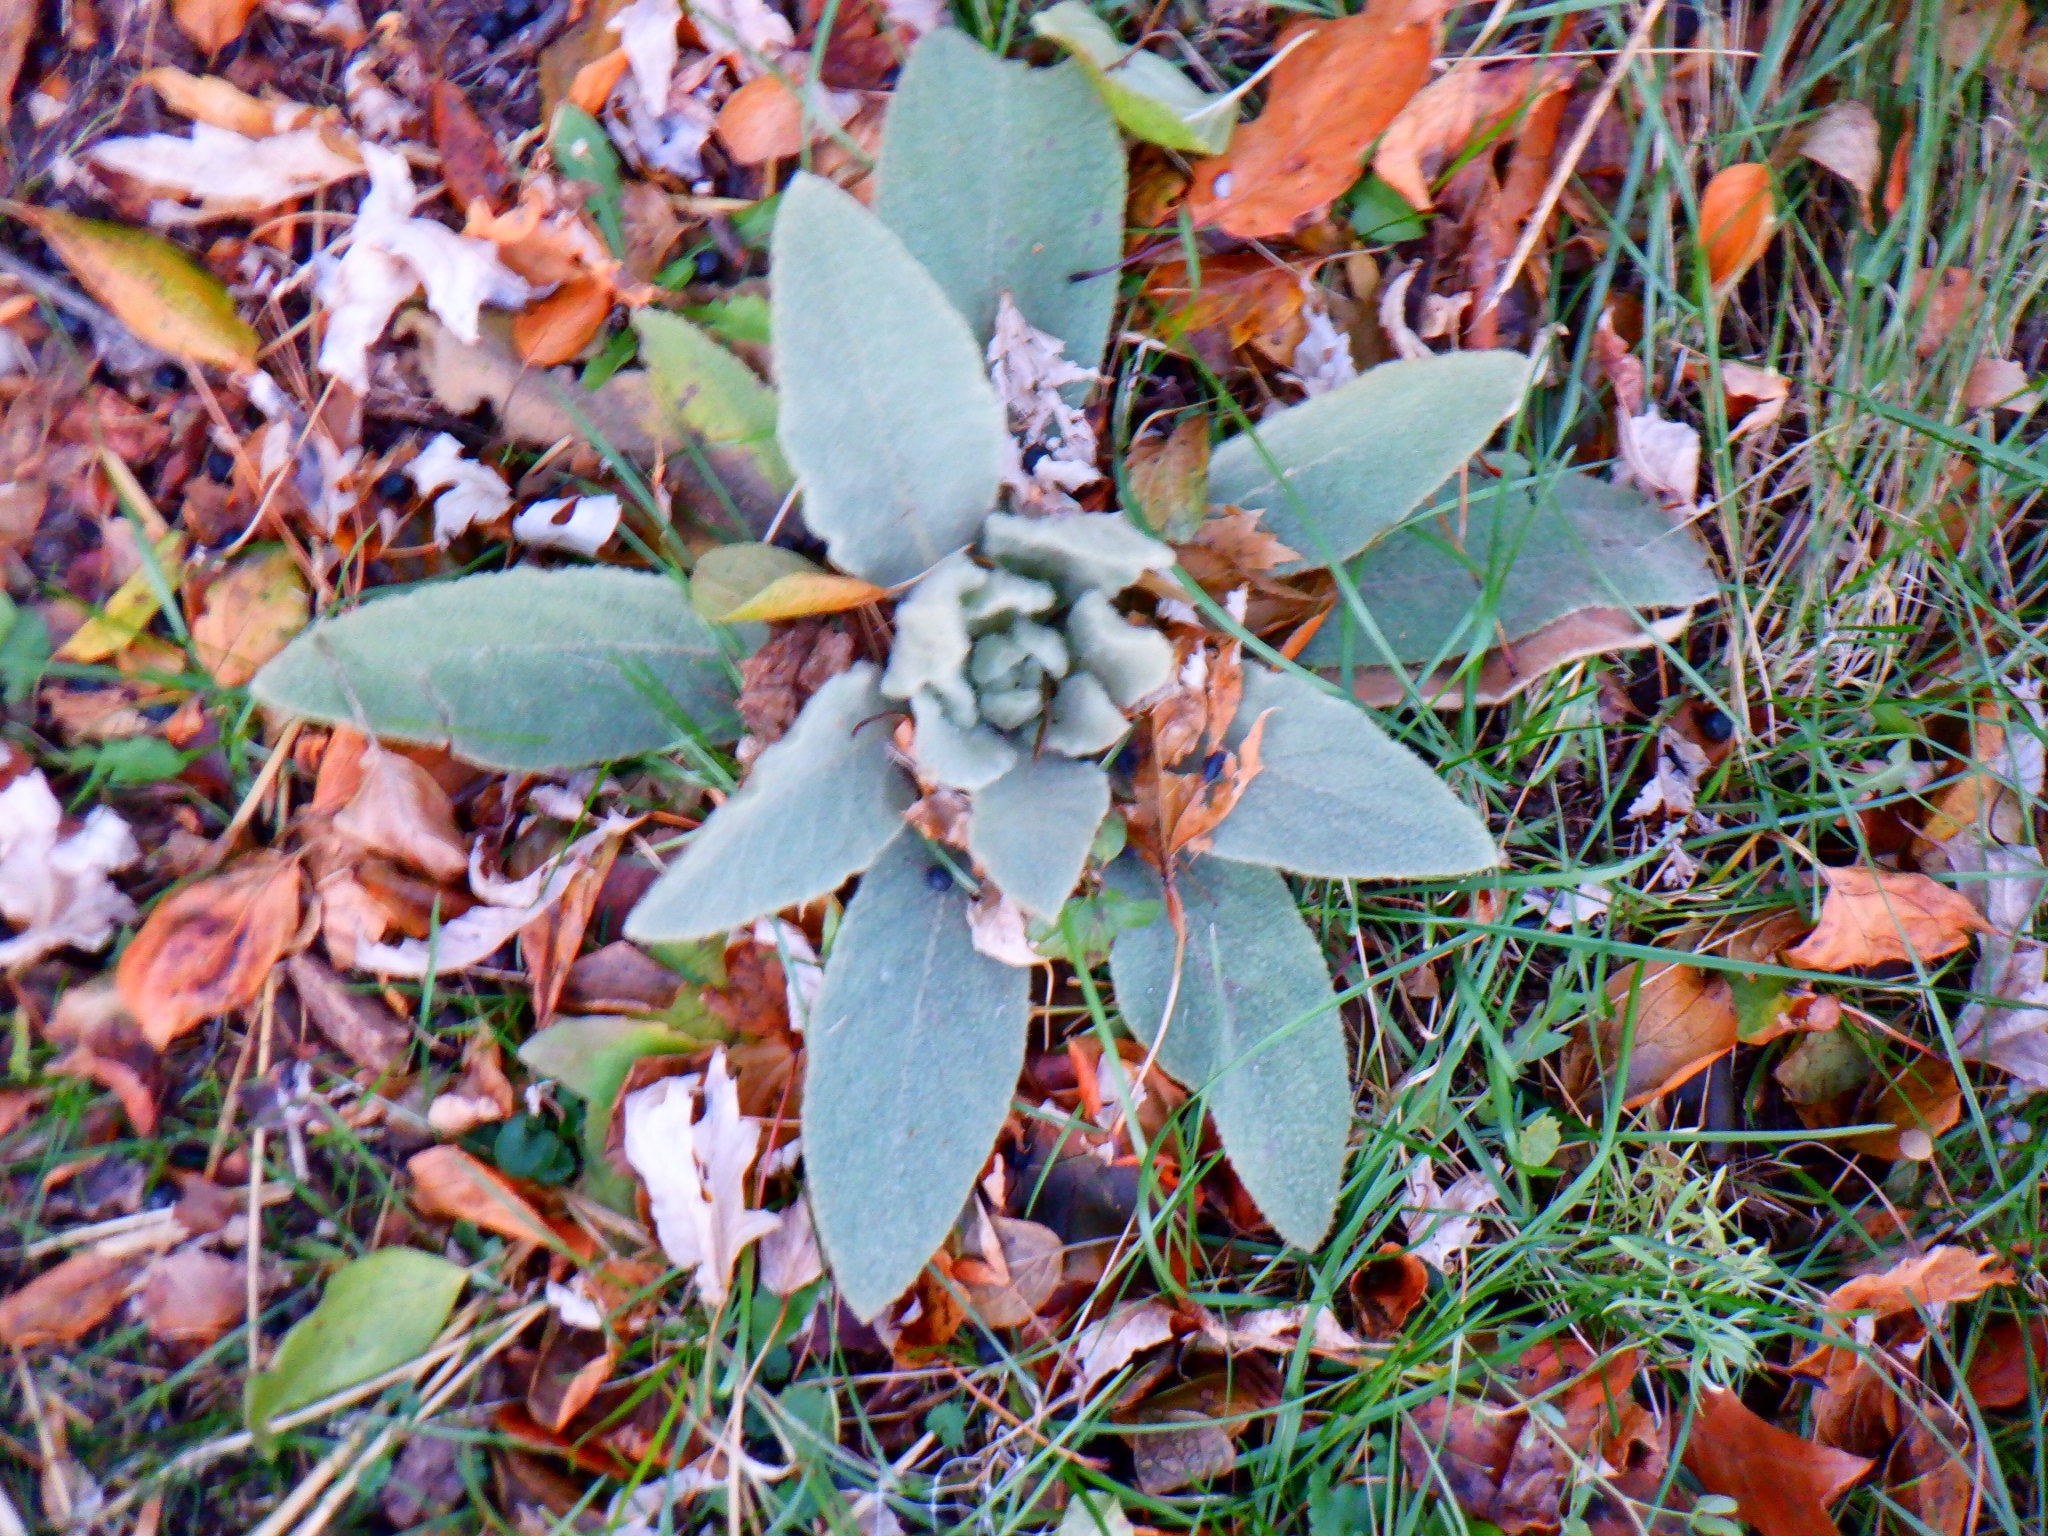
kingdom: Plantae
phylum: Tracheophyta
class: Magnoliopsida
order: Lamiales
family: Scrophulariaceae
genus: Verbascum
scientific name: Verbascum thapsus
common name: Common mullein
